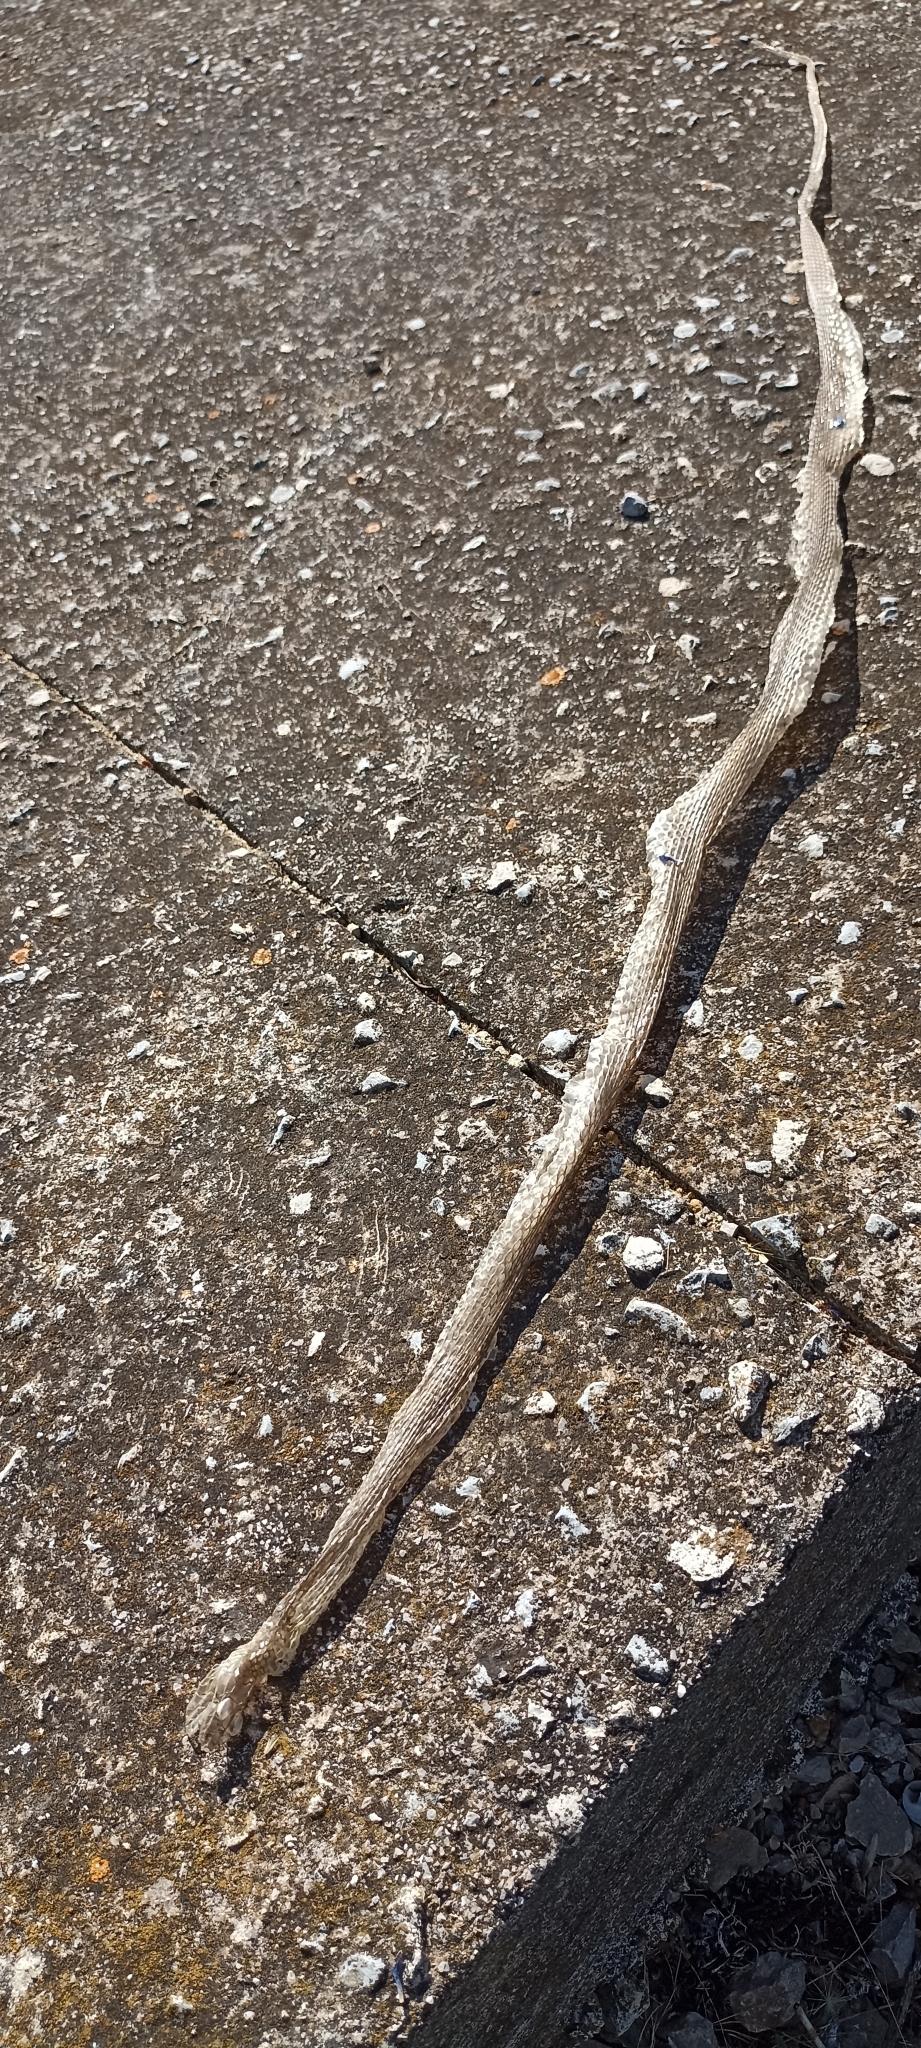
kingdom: Animalia
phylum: Chordata
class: Squamata
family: Psammophiidae
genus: Malpolon
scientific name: Malpolon monspessulanus
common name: Montpellier snake
